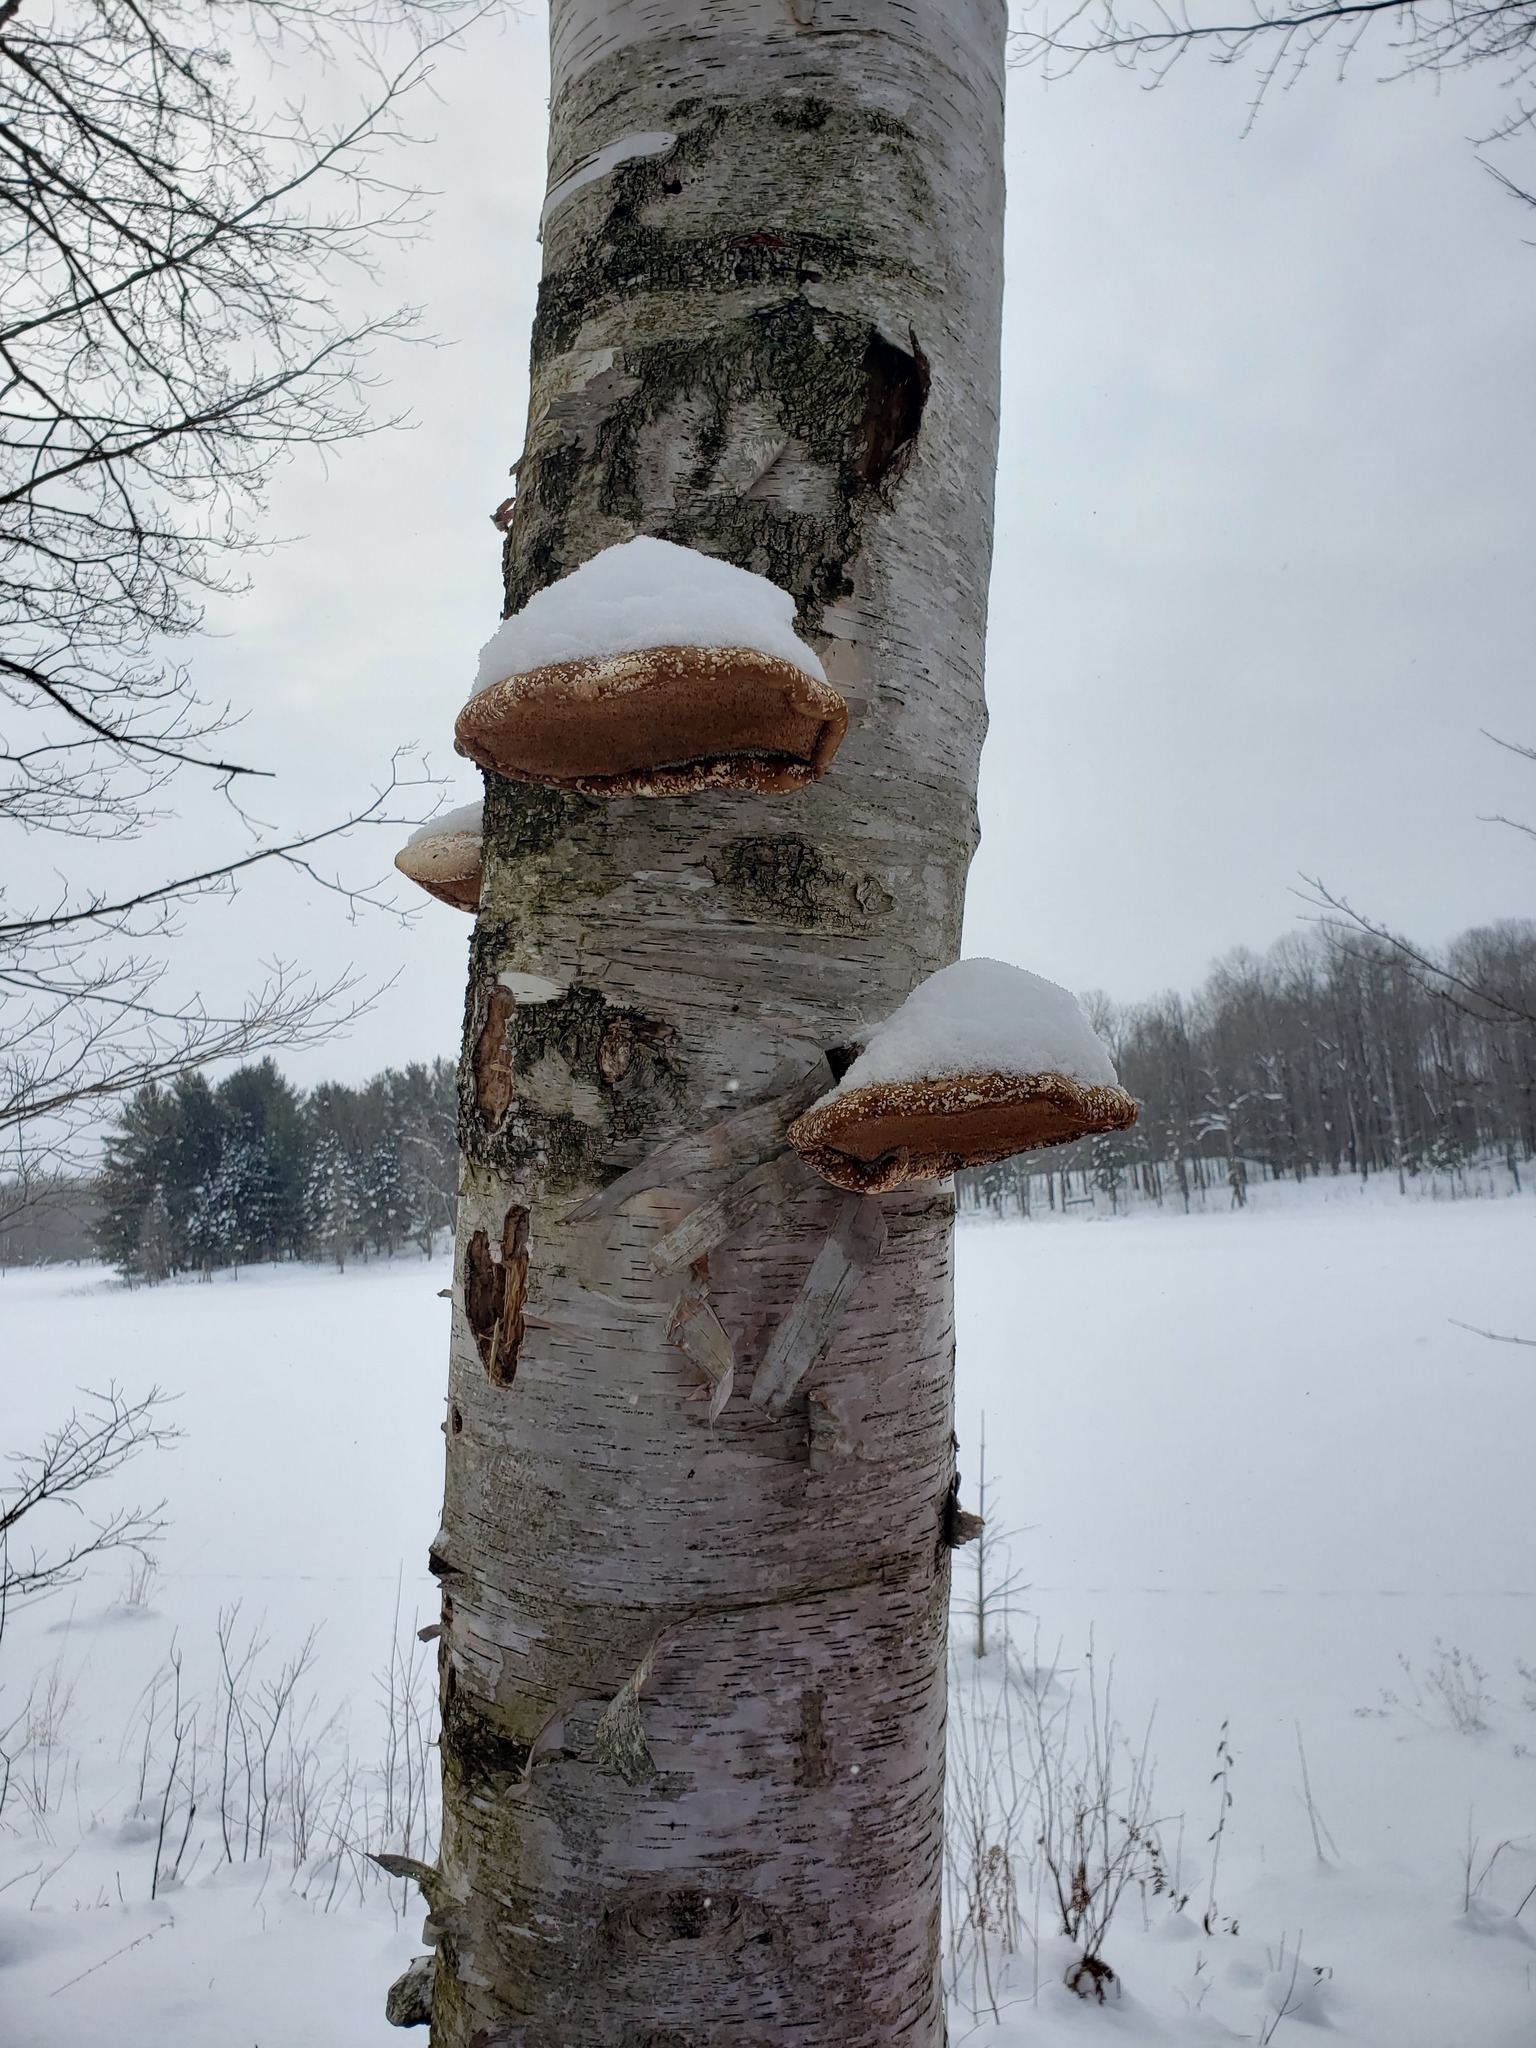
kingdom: Fungi
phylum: Basidiomycota
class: Agaricomycetes
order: Polyporales
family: Fomitopsidaceae
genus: Fomitopsis
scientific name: Fomitopsis betulina
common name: Birch polypore
